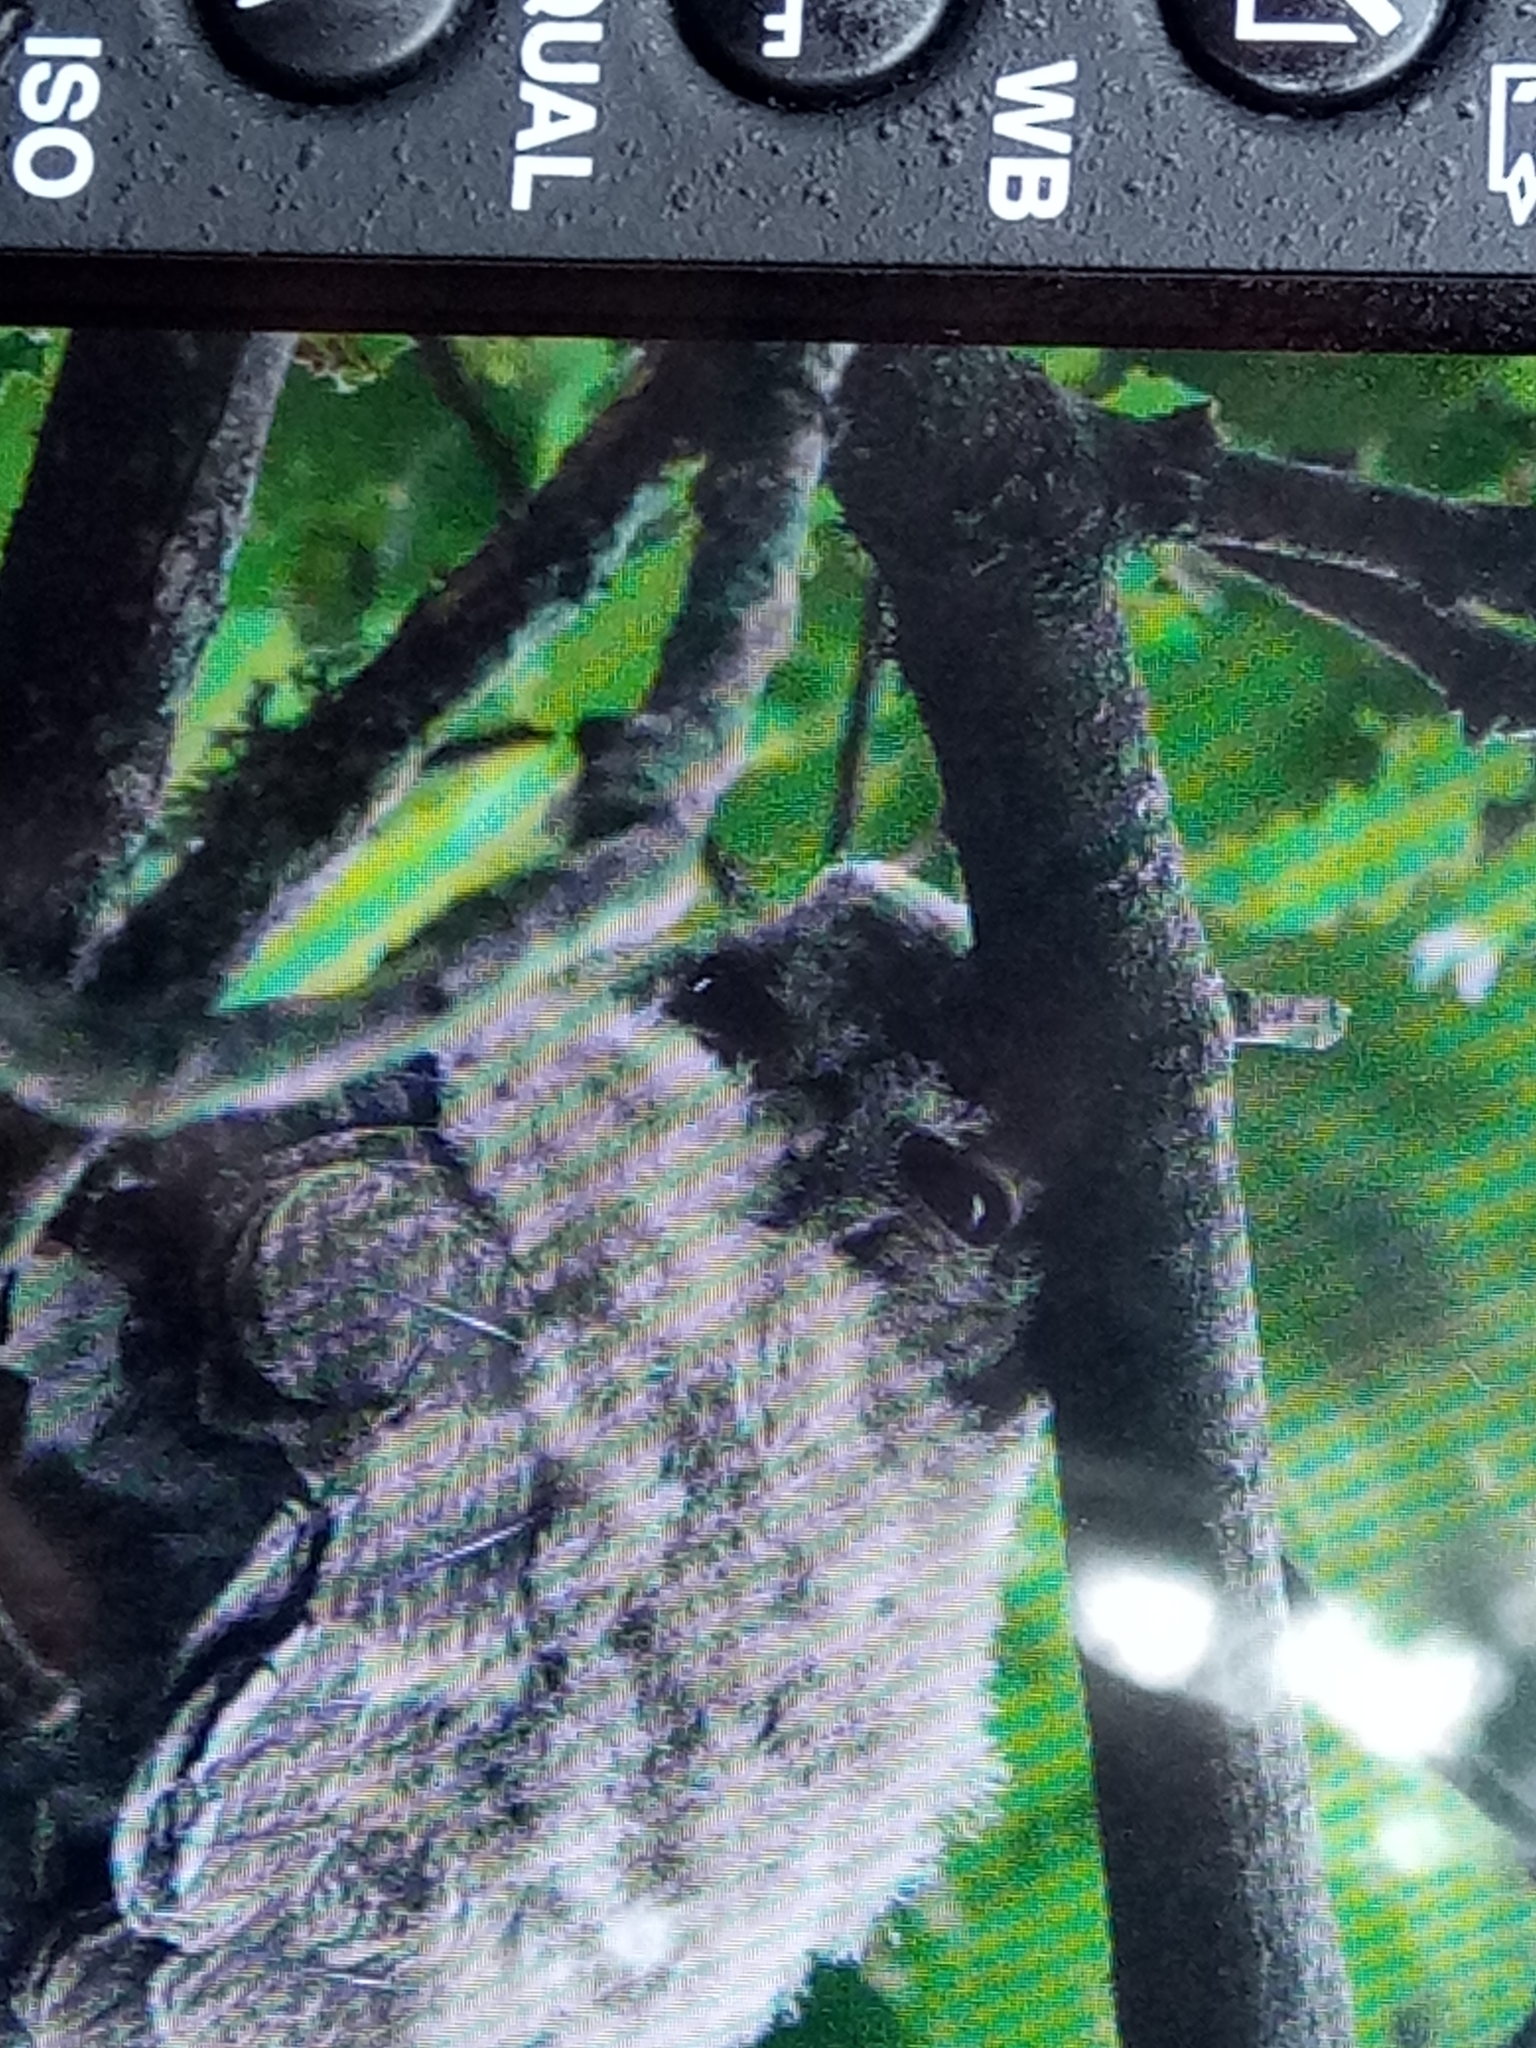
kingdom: Animalia
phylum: Chordata
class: Aves
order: Strigiformes
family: Strigidae
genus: Strix
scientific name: Strix aluco
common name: Tawny owl
